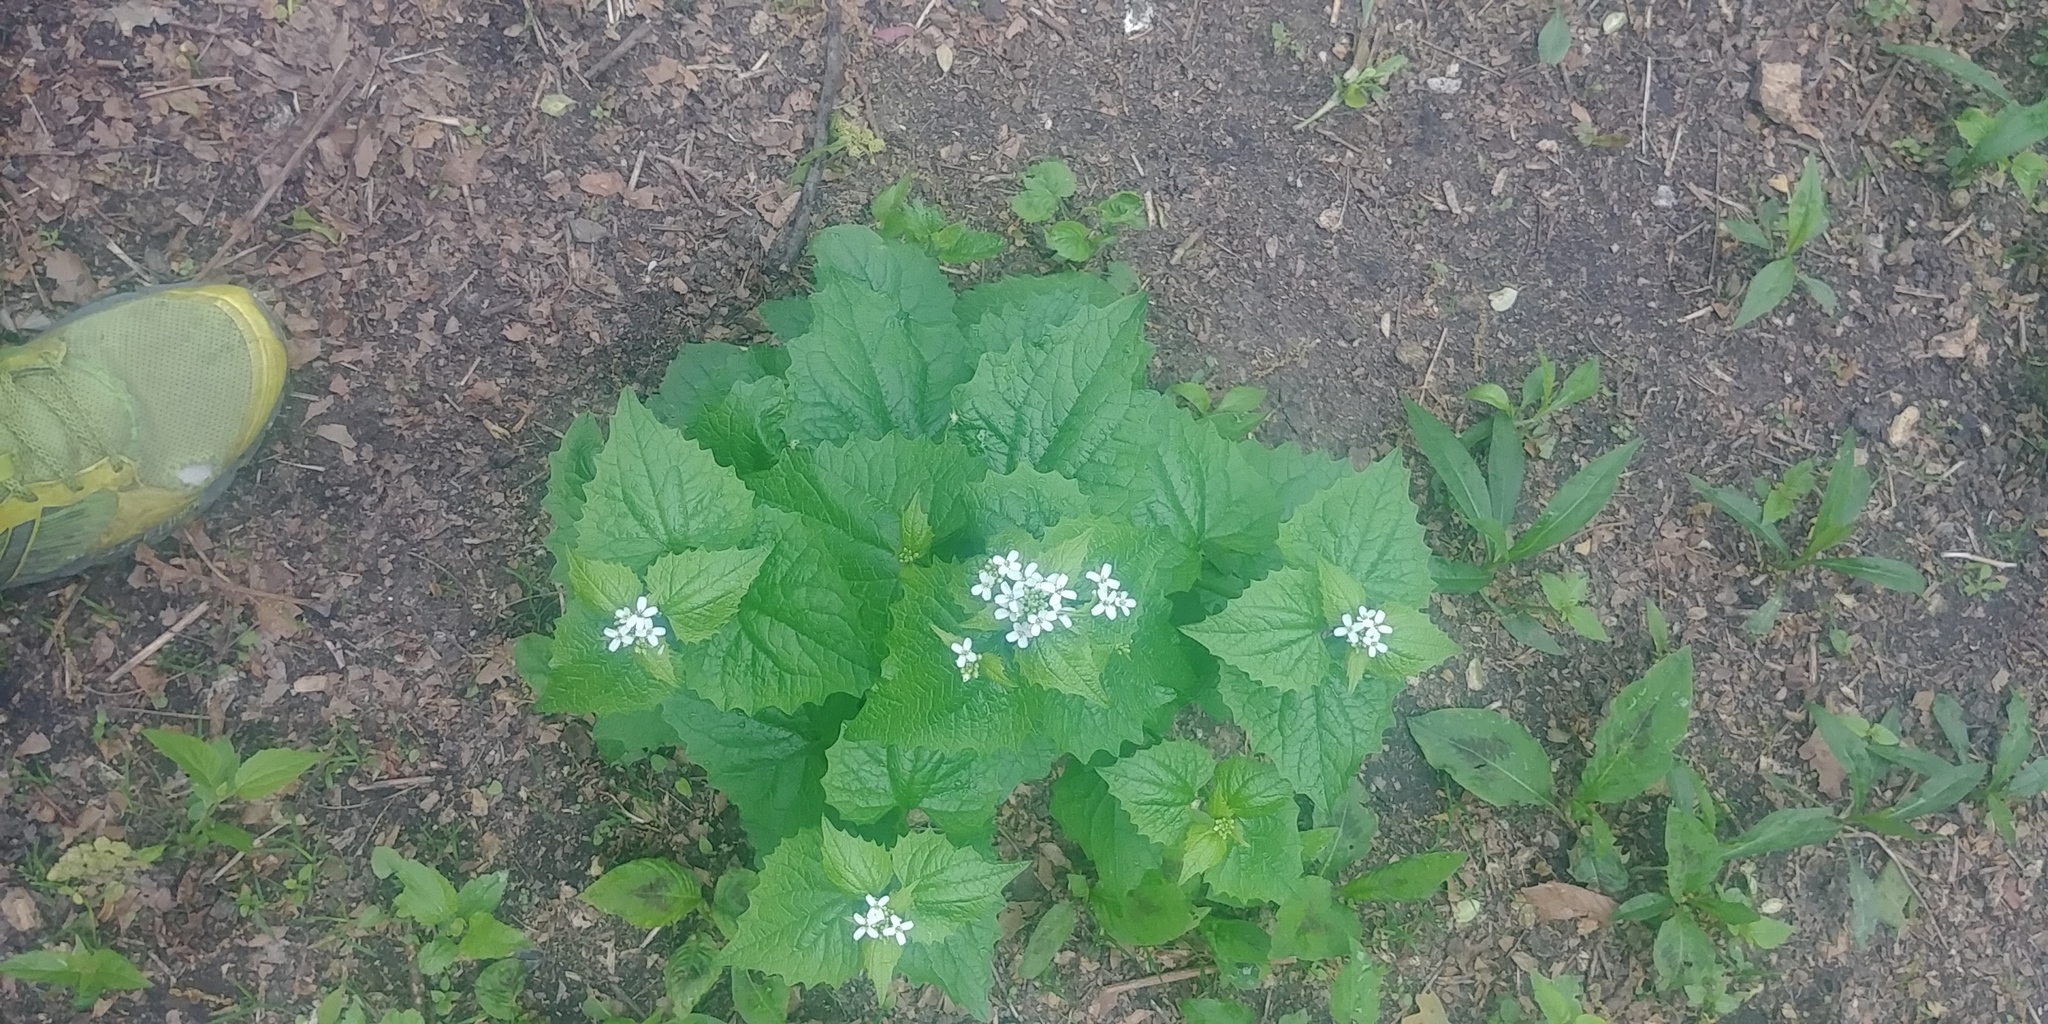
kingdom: Plantae
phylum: Tracheophyta
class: Magnoliopsida
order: Brassicales
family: Brassicaceae
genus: Alliaria
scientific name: Alliaria petiolata
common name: Garlic mustard
